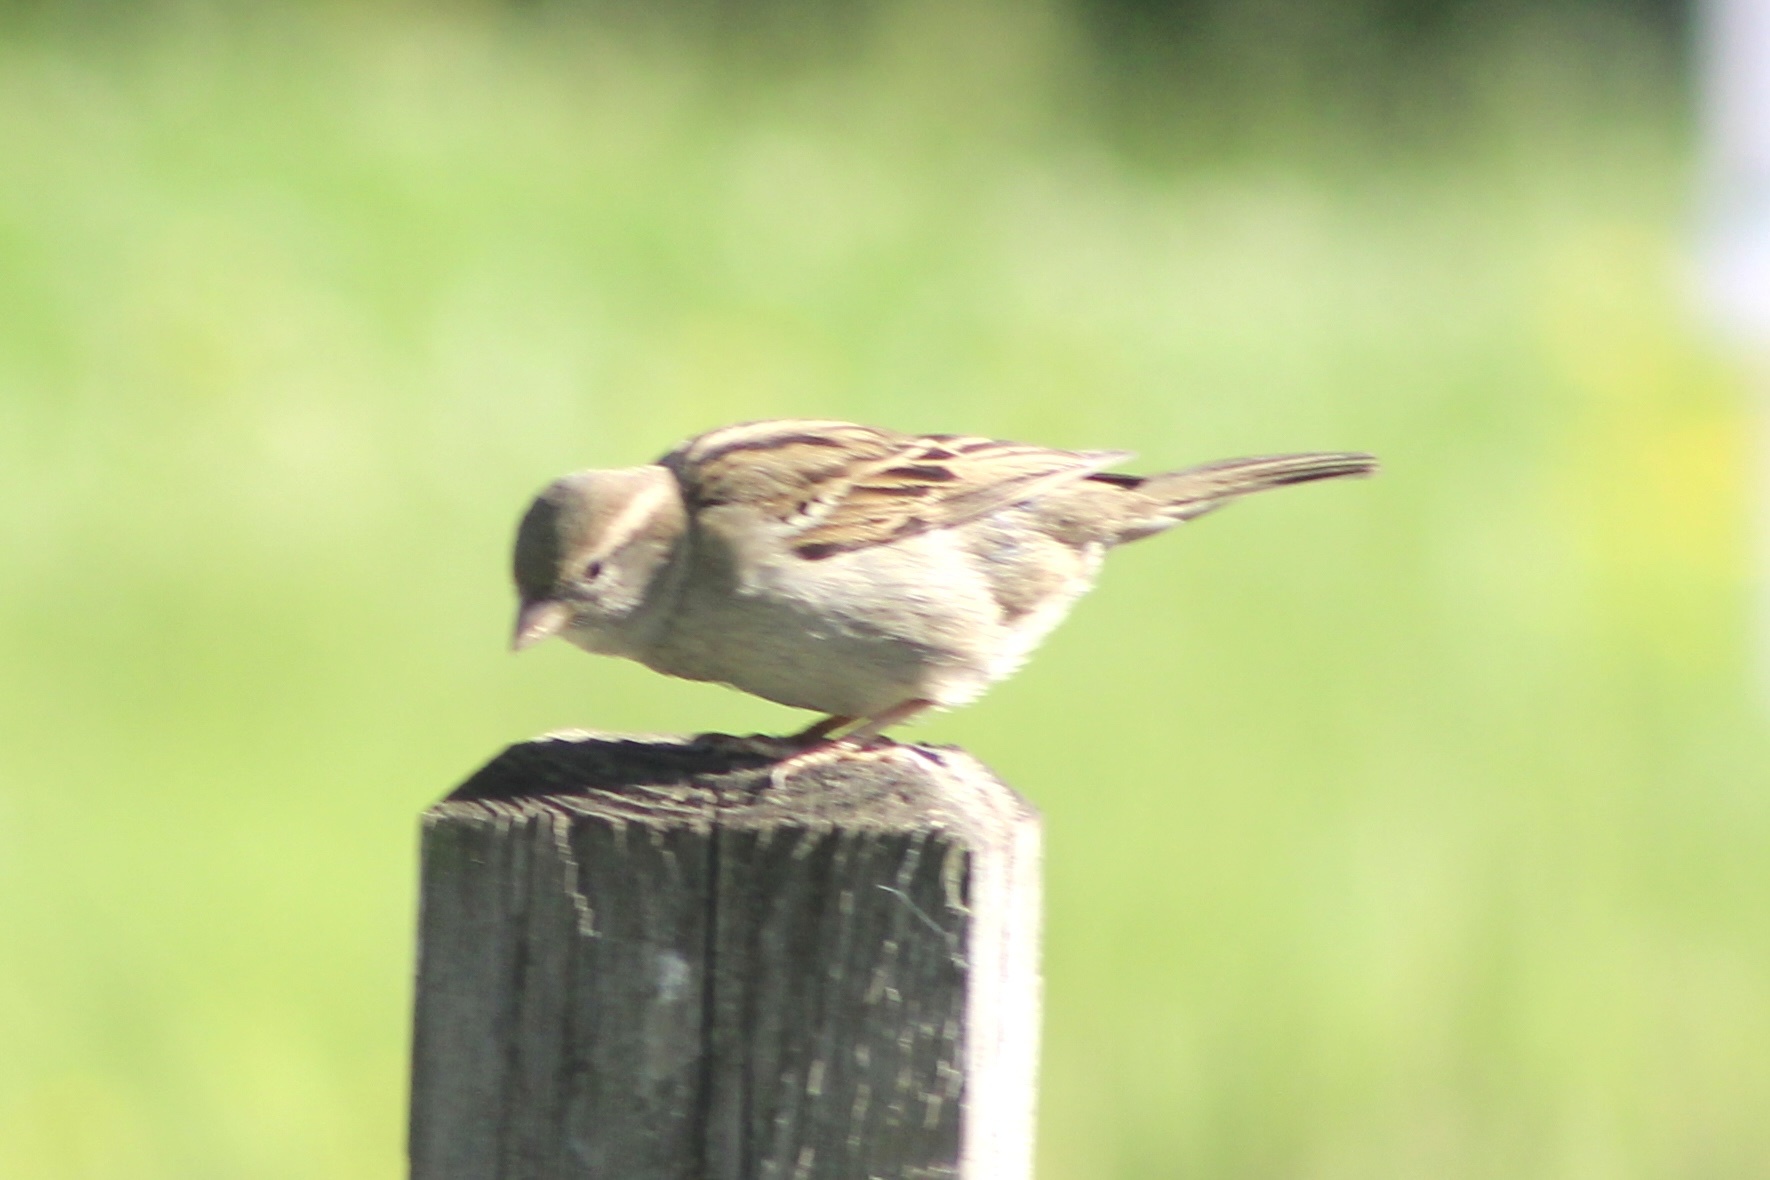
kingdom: Animalia
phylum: Chordata
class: Aves
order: Passeriformes
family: Passeridae
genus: Passer
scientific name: Passer domesticus
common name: House sparrow
